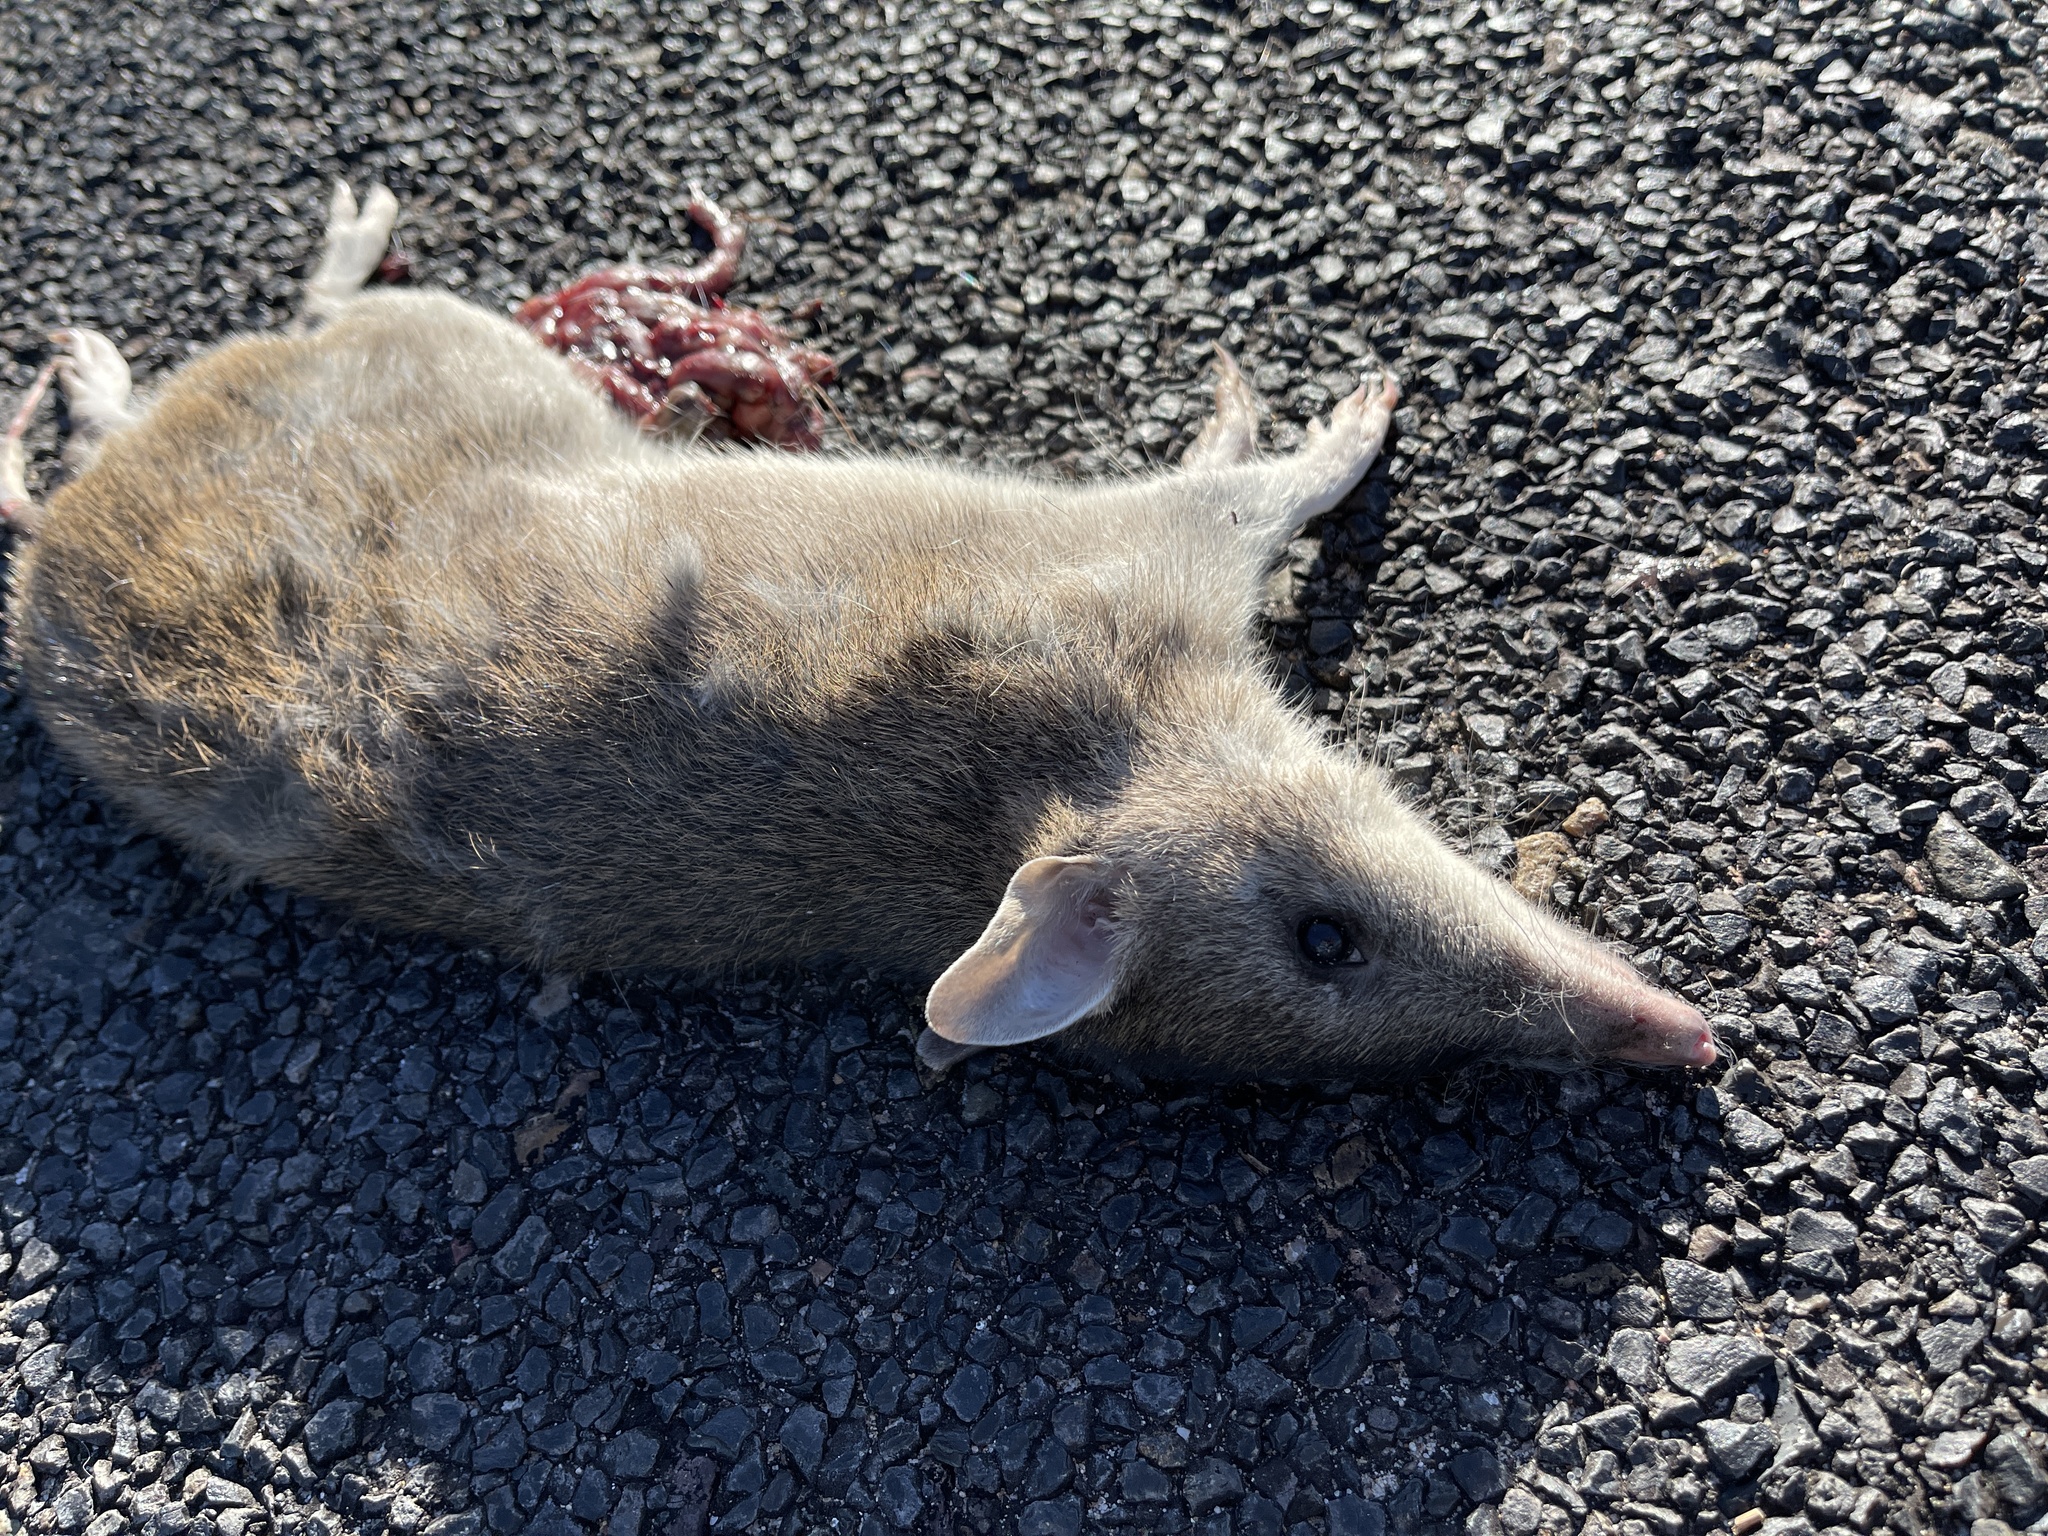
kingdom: Animalia
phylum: Chordata
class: Mammalia
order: Peramelemorphia
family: Peramelidae
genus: Perameles
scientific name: Perameles nasuta
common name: Long-nosed bandicoot
